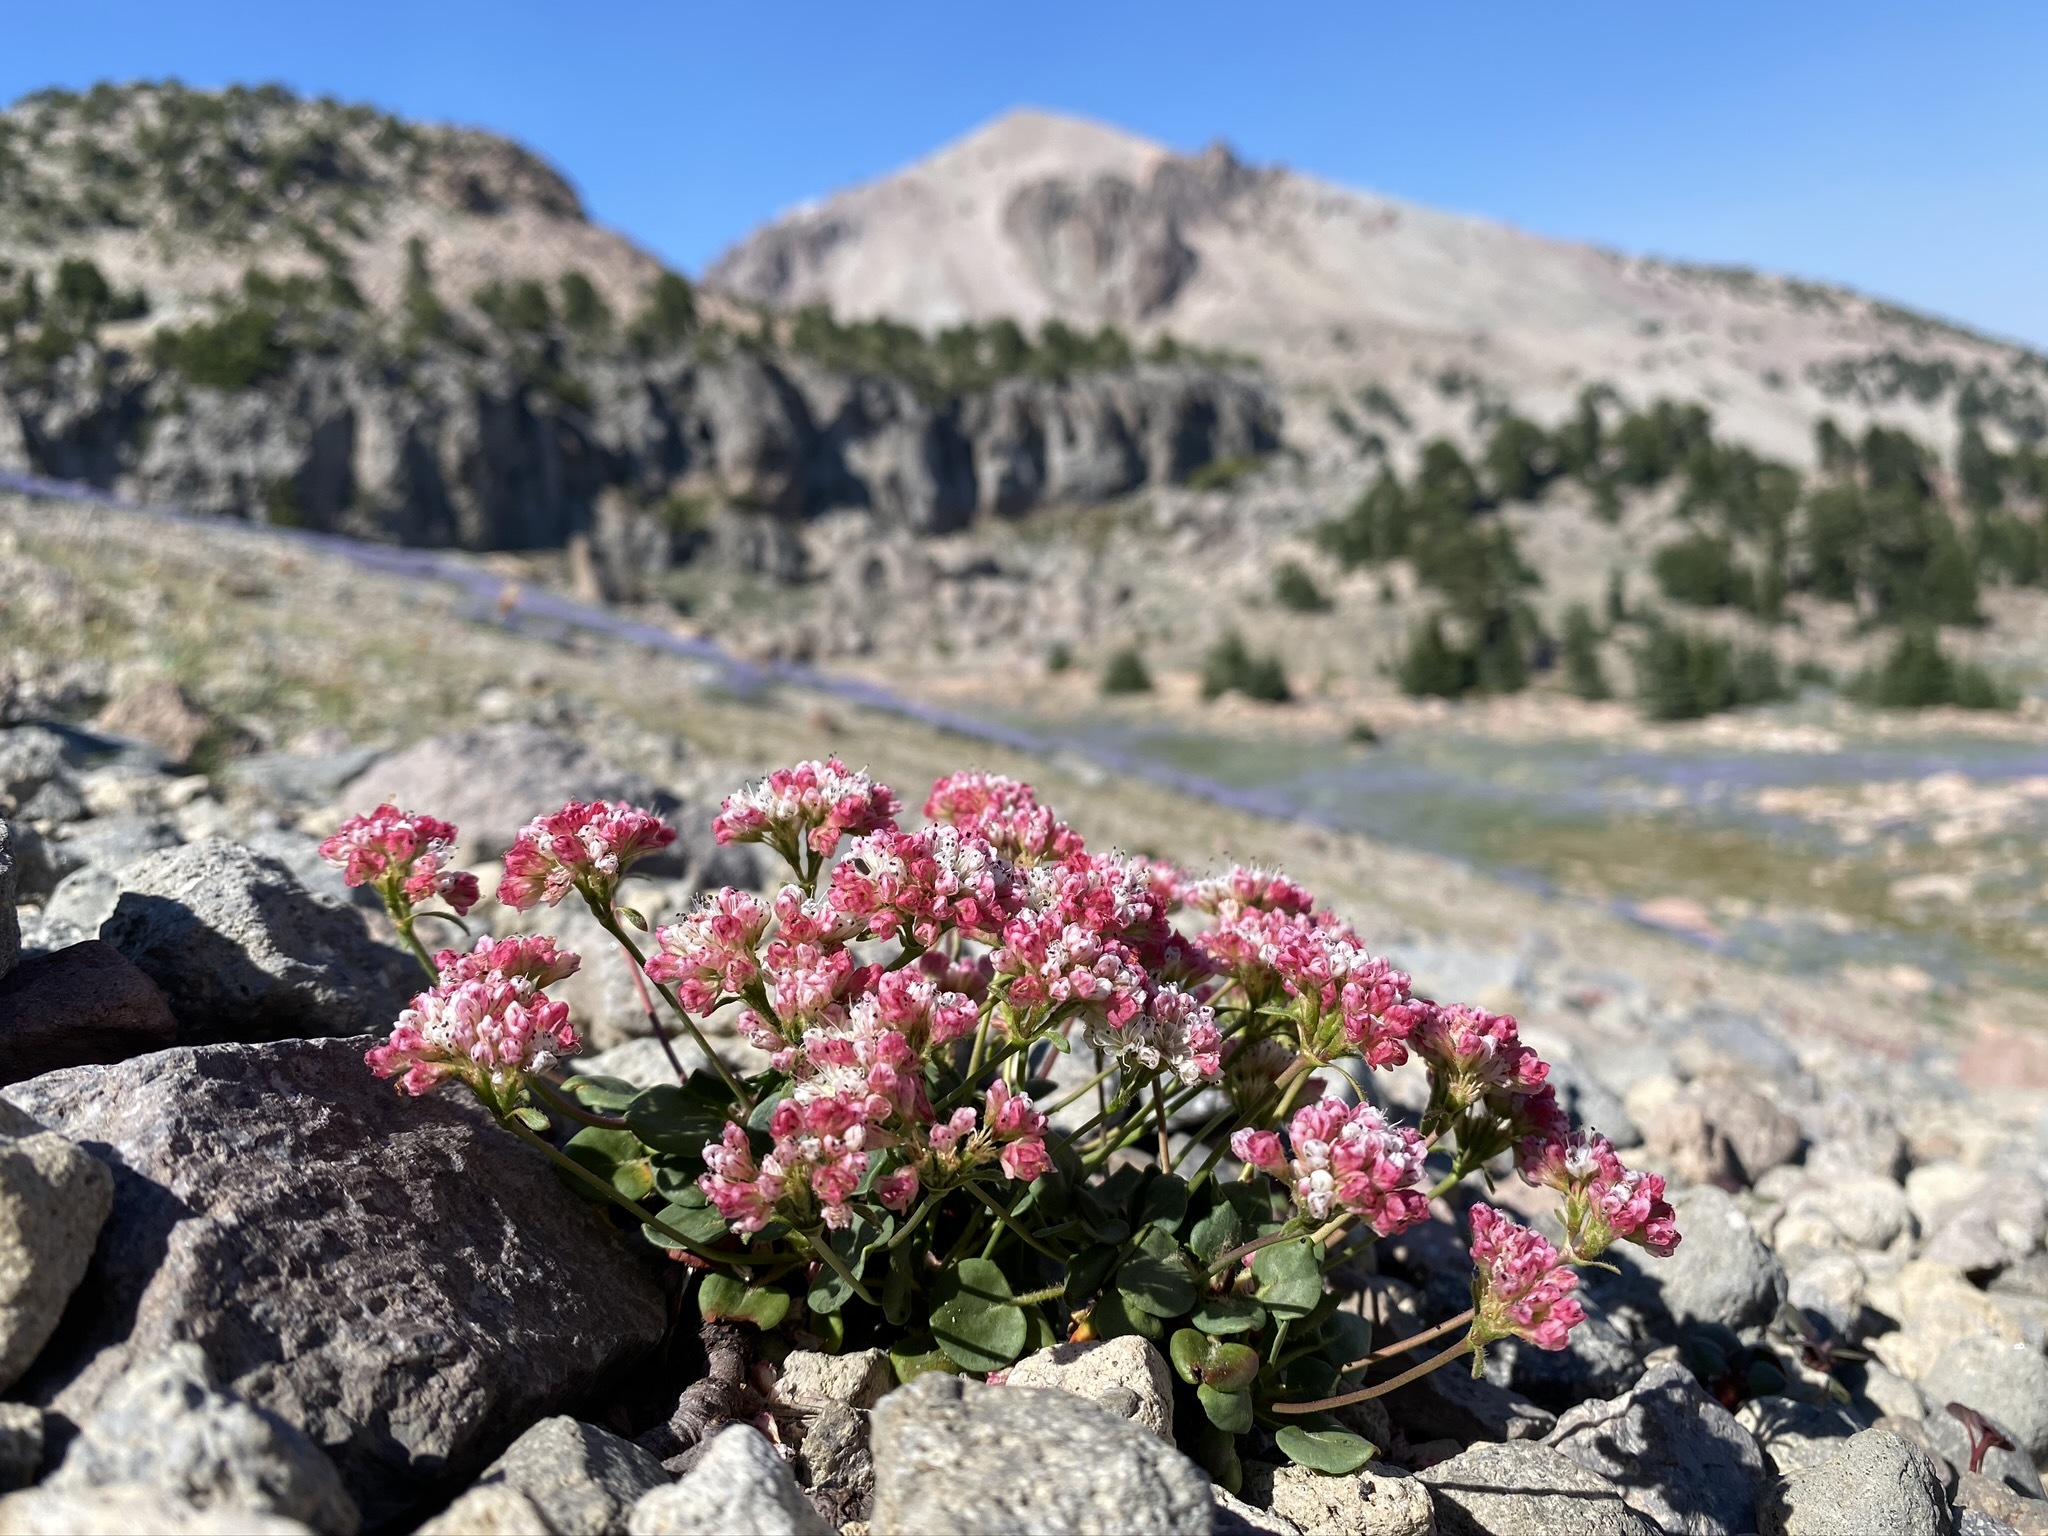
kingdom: Plantae
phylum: Tracheophyta
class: Magnoliopsida
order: Caryophyllales
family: Polygonaceae
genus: Eriogonum
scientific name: Eriogonum pyrolifolium
